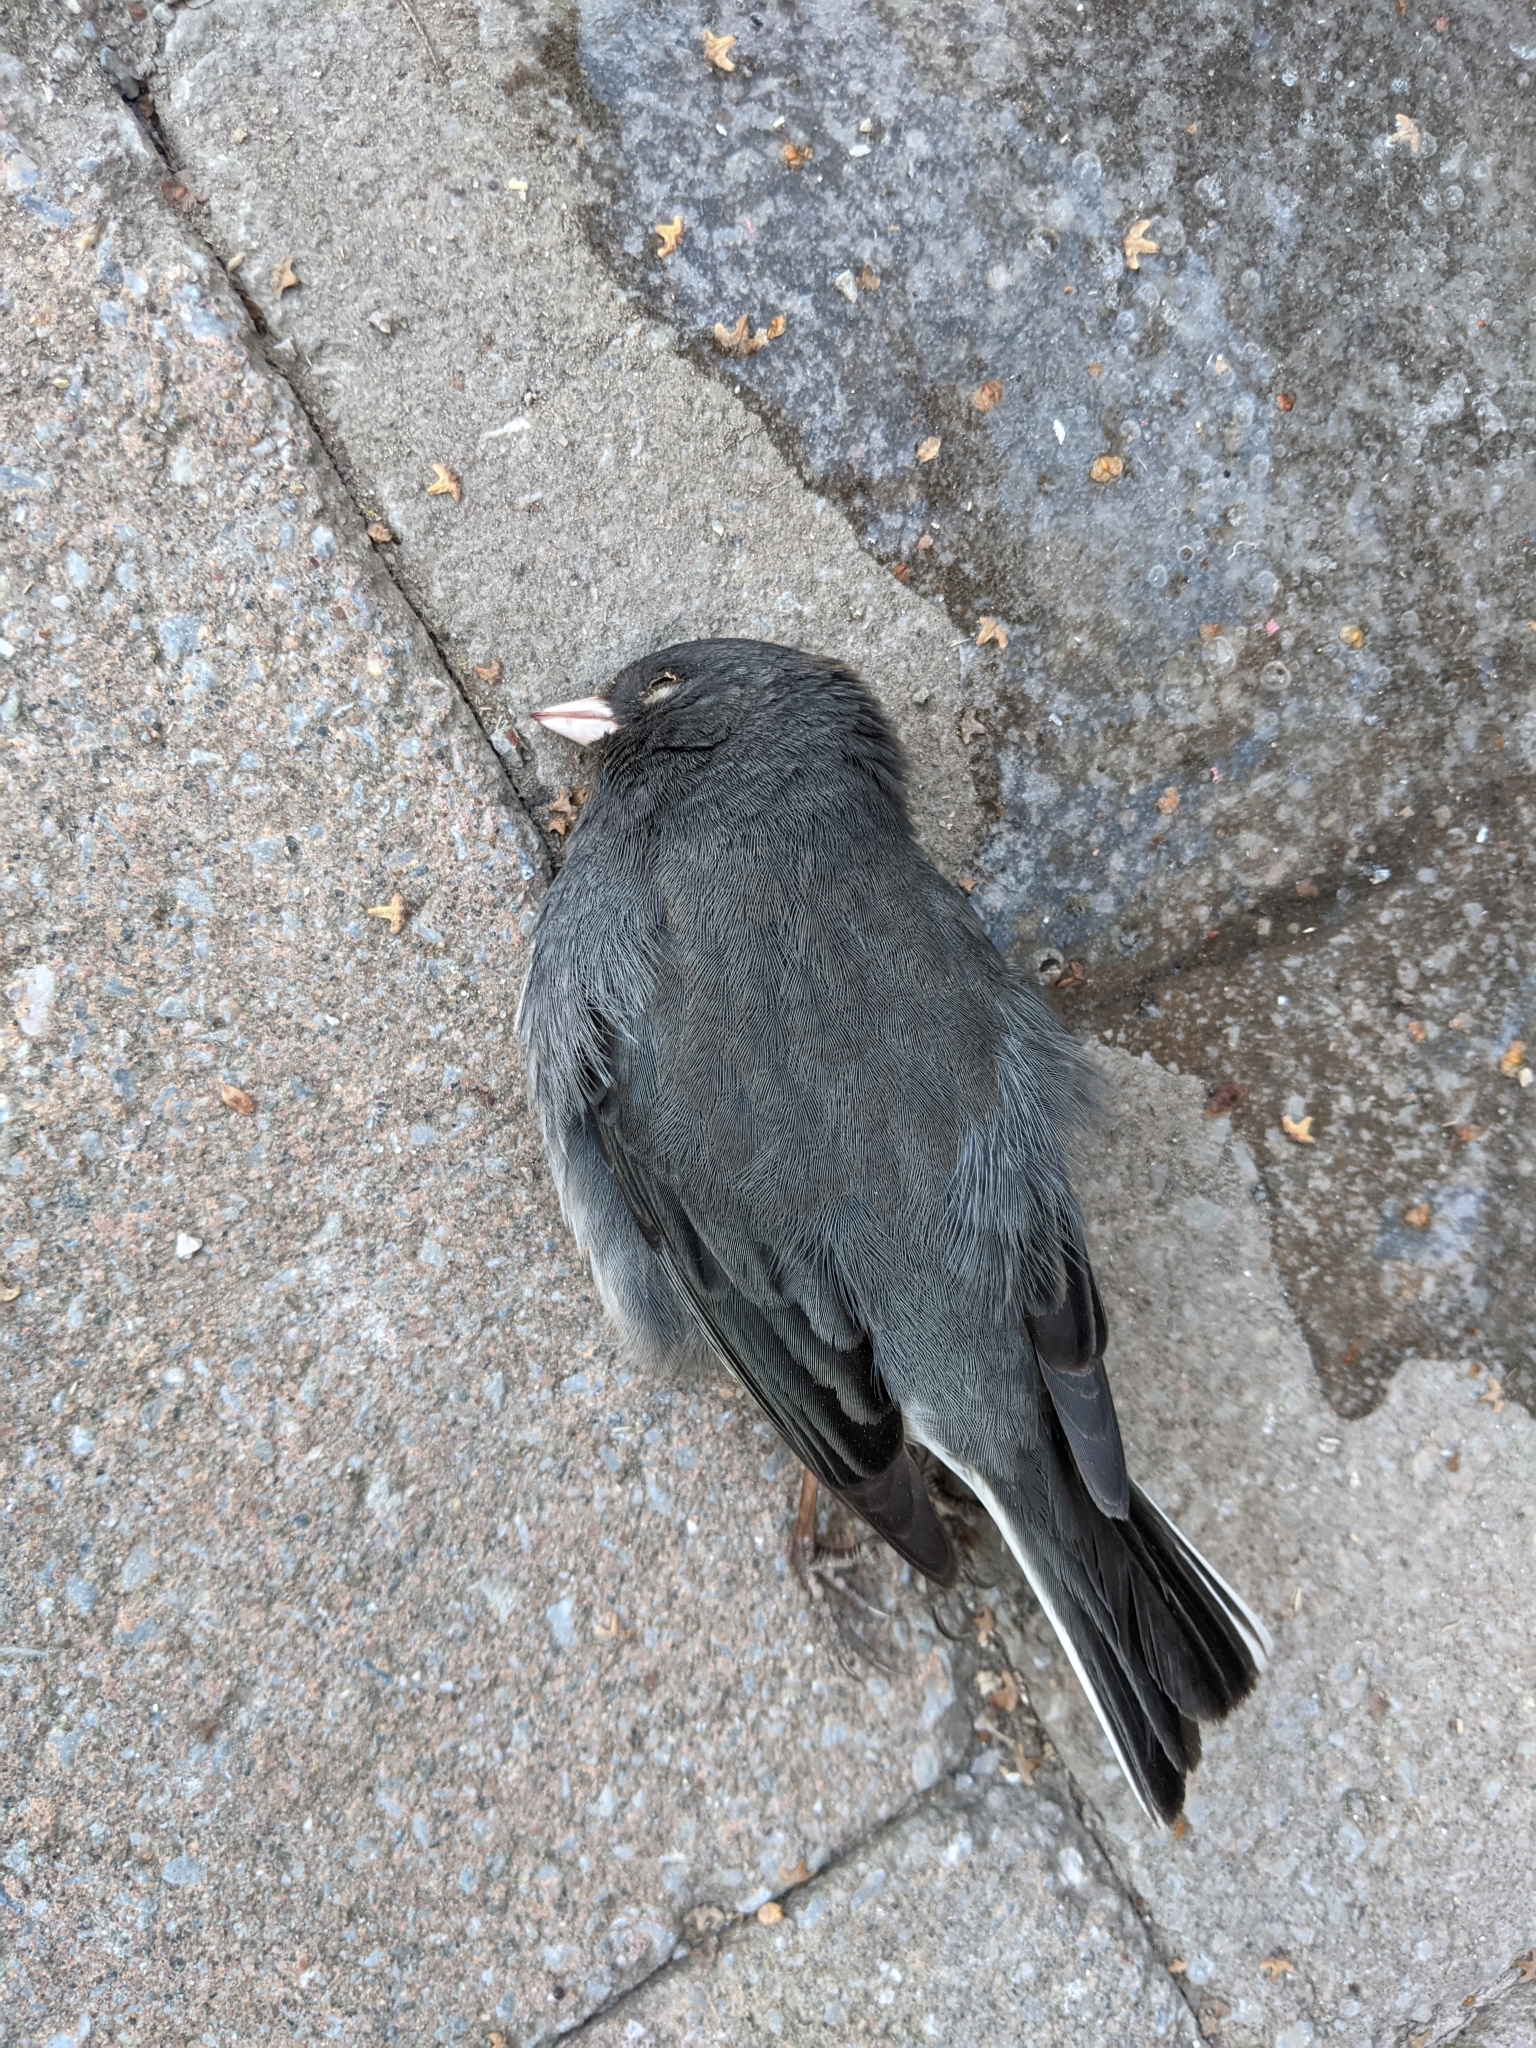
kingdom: Animalia
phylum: Chordata
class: Aves
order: Passeriformes
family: Passerellidae
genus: Junco
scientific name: Junco hyemalis
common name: Dark-eyed junco
